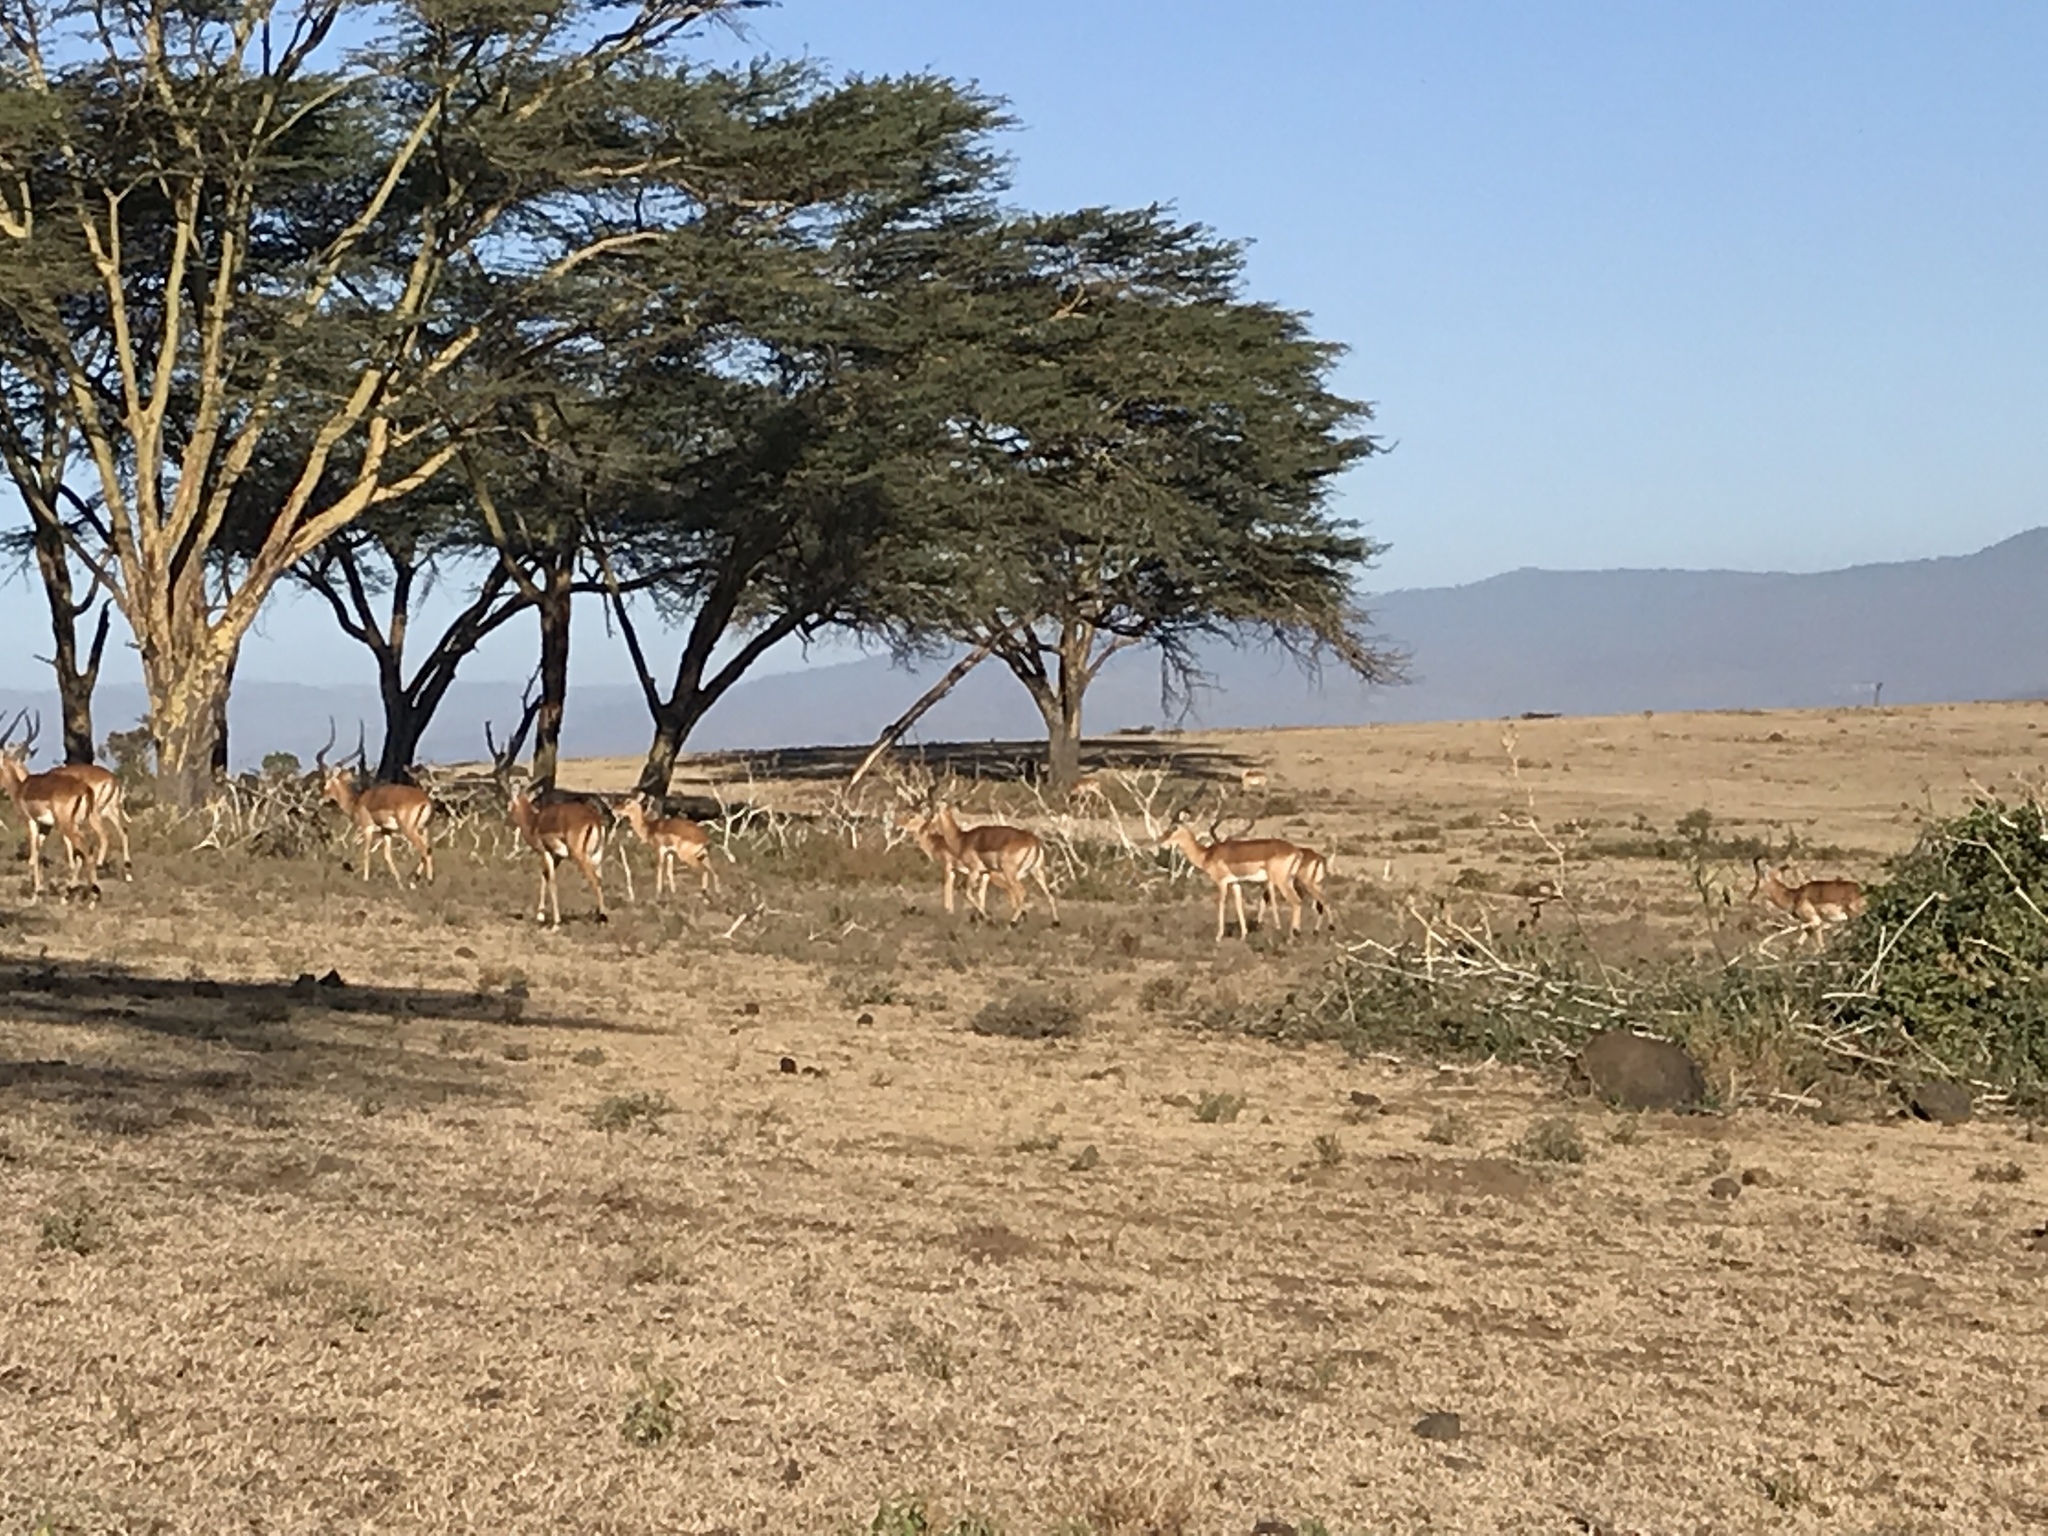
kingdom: Animalia
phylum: Chordata
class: Mammalia
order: Artiodactyla
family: Bovidae
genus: Aepyceros
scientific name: Aepyceros melampus
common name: Impala
